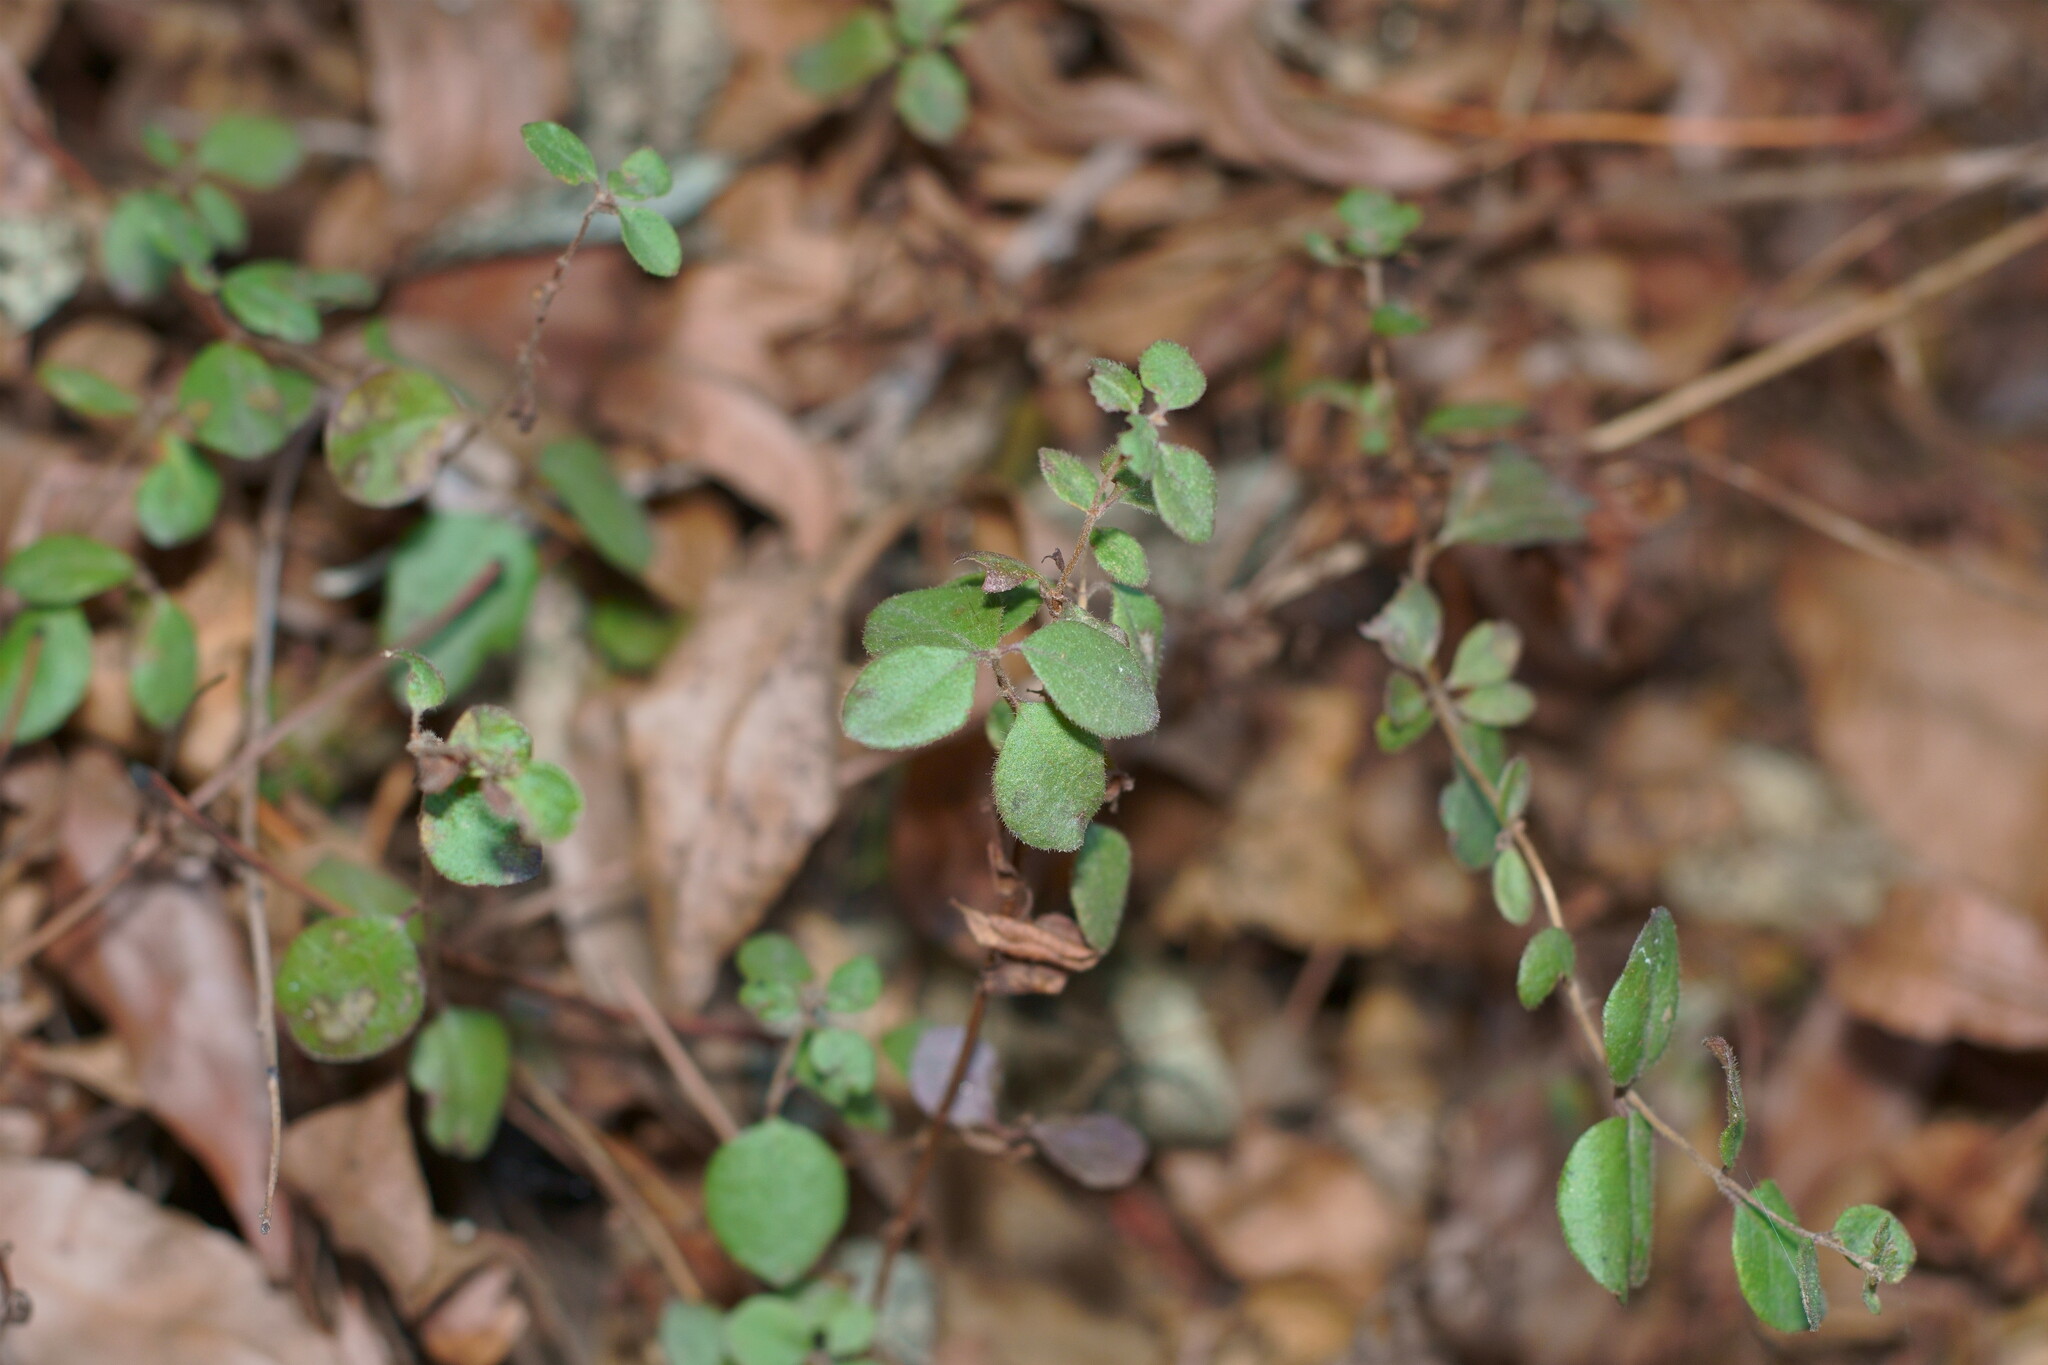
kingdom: Plantae
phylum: Tracheophyta
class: Magnoliopsida
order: Dipsacales
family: Caprifoliaceae
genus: Lonicera
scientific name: Lonicera subspicata
